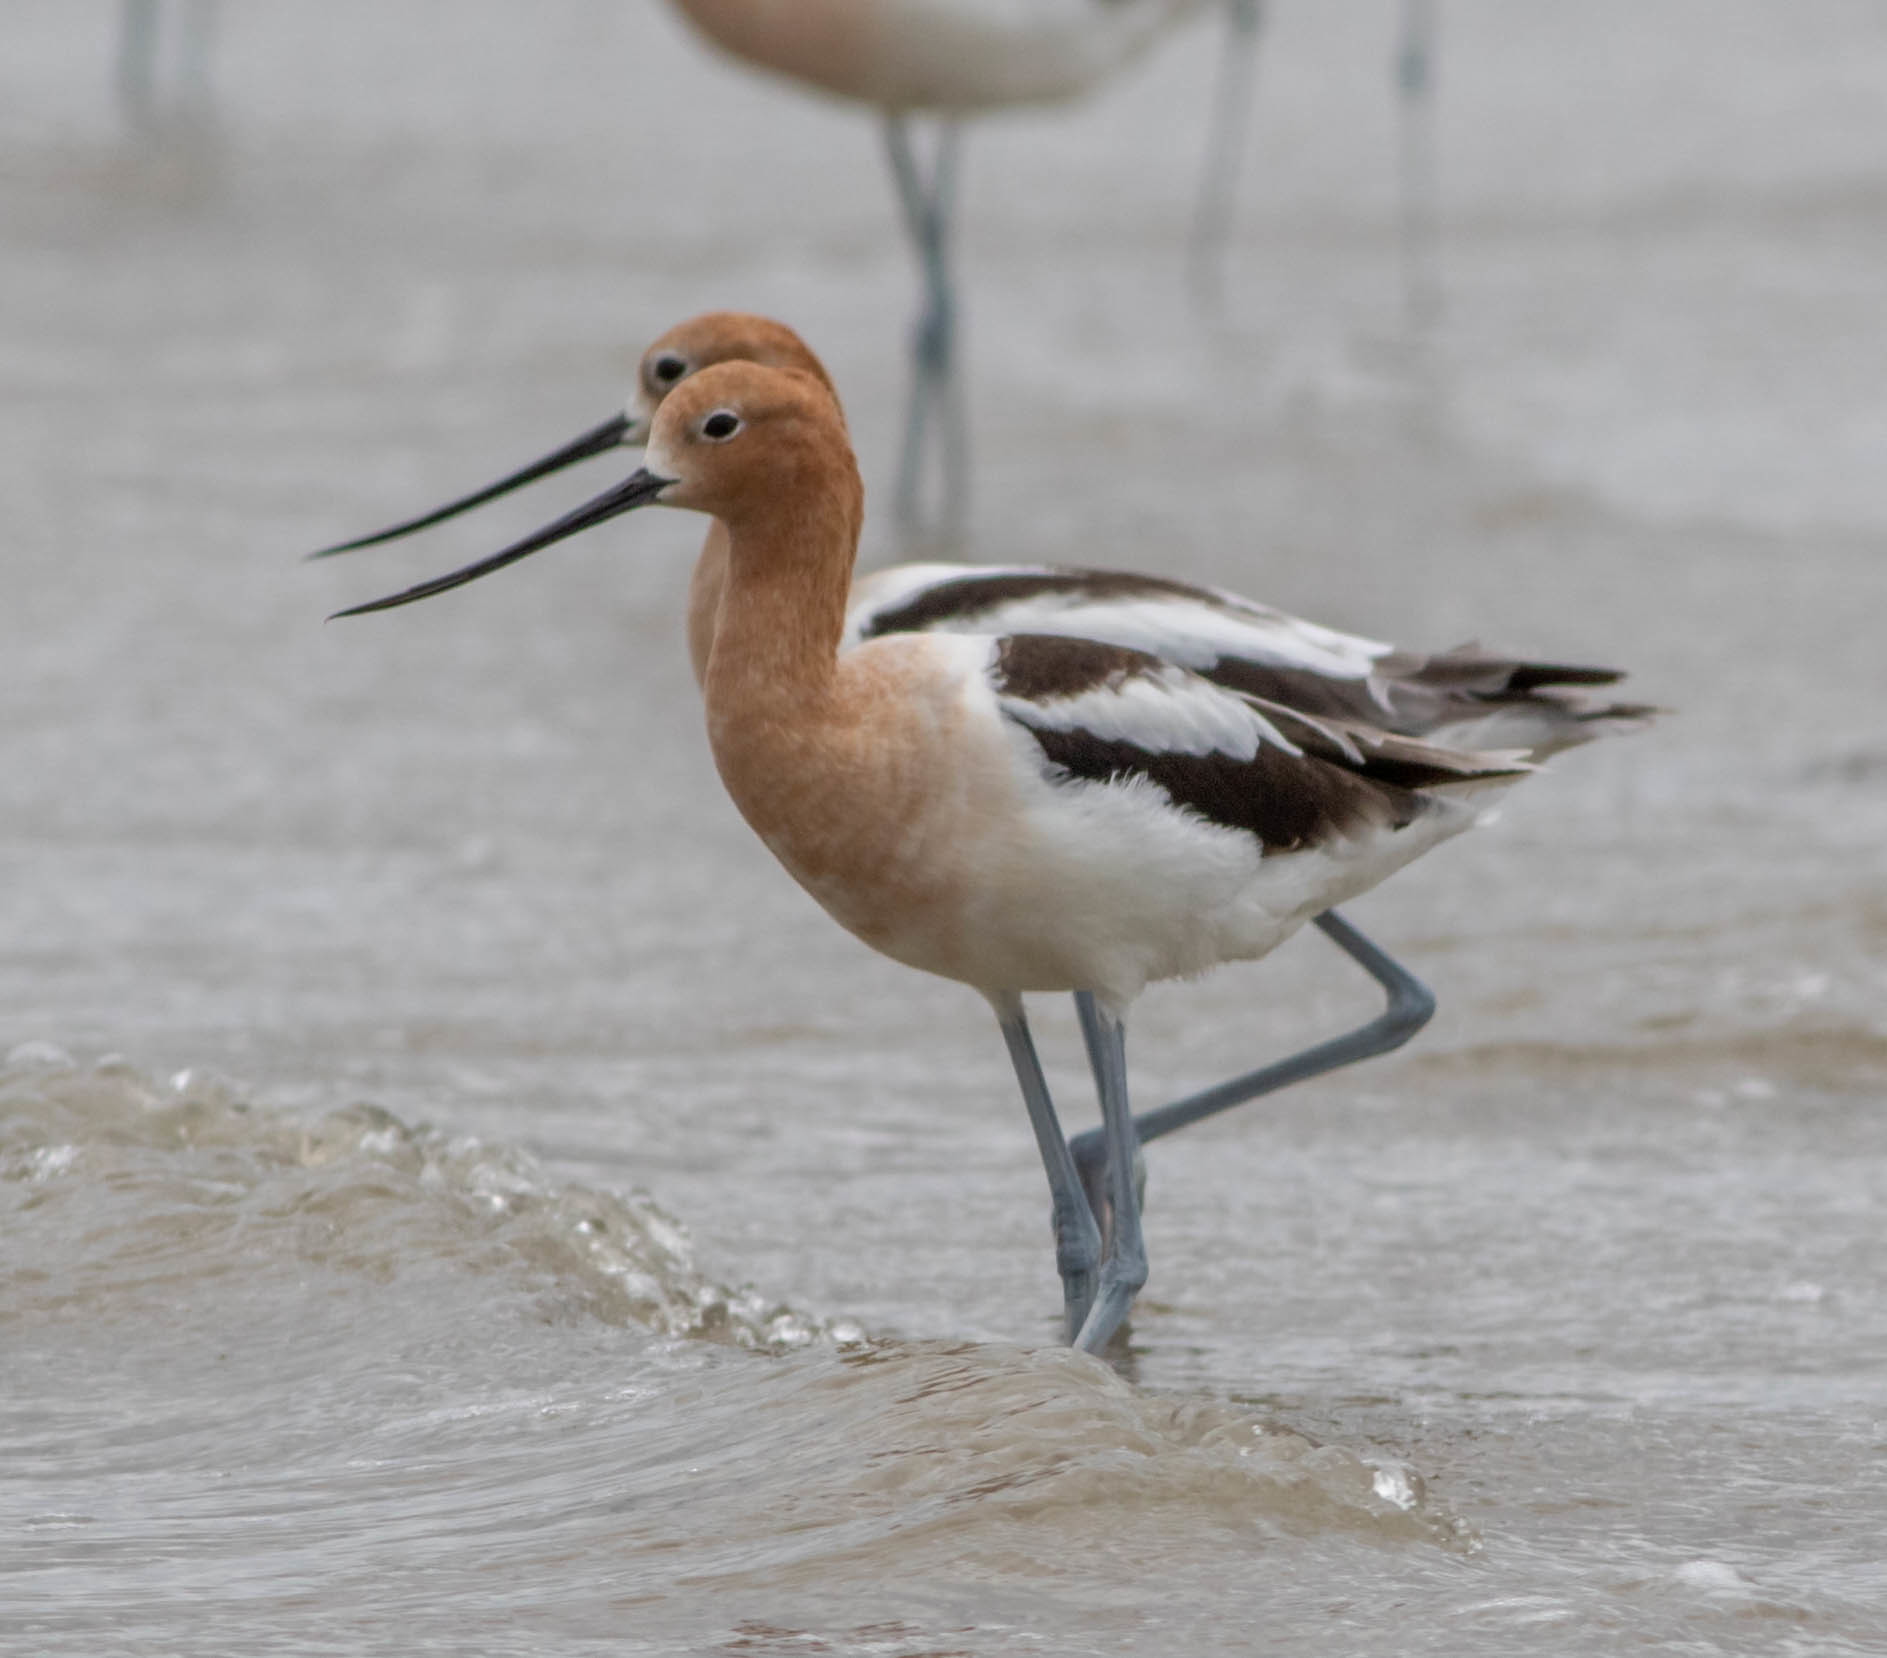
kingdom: Animalia
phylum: Chordata
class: Aves
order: Charadriiformes
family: Recurvirostridae
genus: Recurvirostra
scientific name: Recurvirostra americana
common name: American avocet
